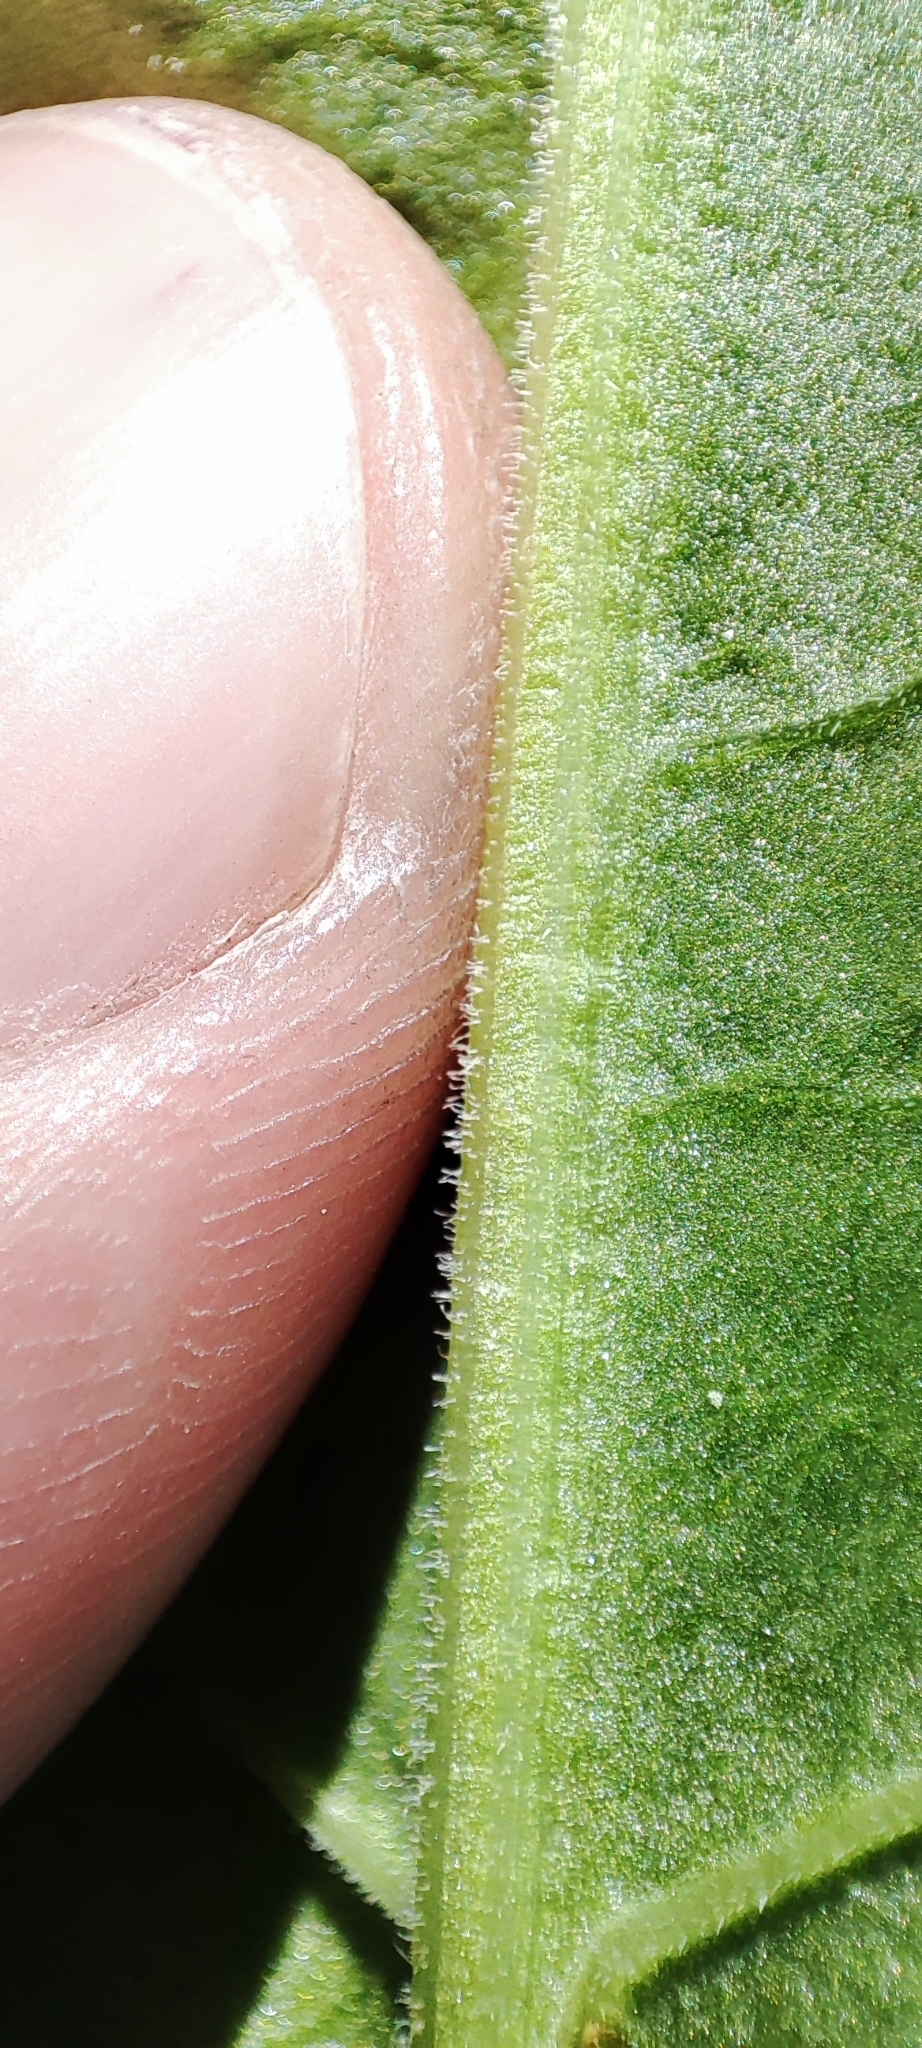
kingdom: Plantae
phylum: Tracheophyta
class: Magnoliopsida
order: Caryophyllales
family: Polygonaceae
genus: Rumex
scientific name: Rumex confertus
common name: Russian dock
